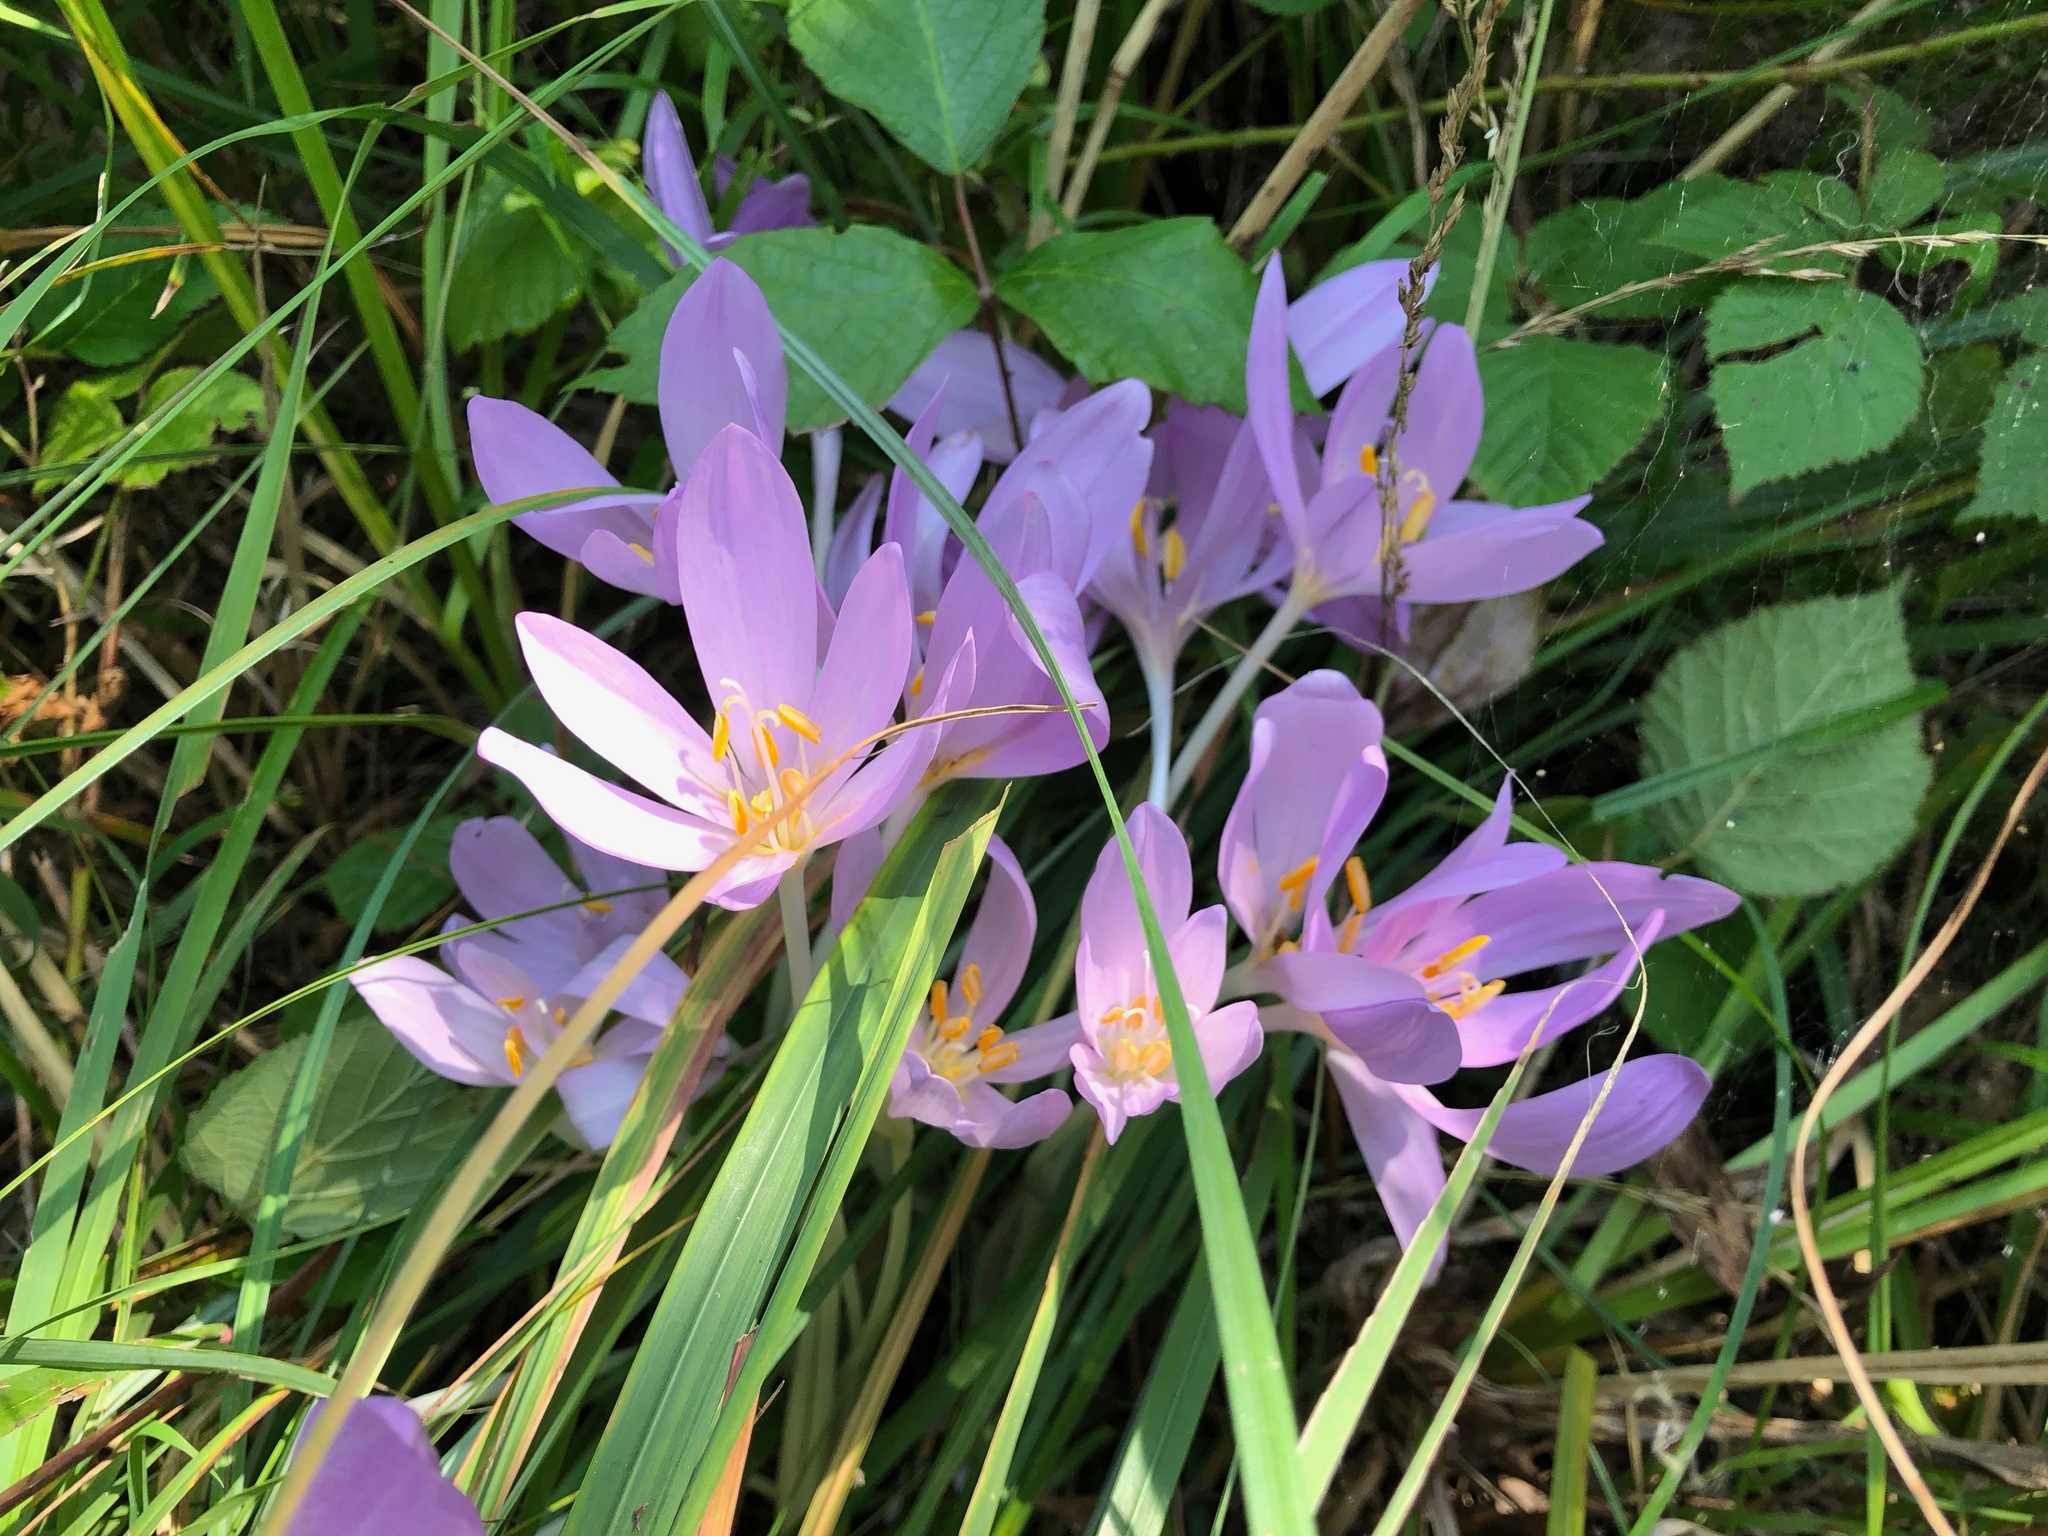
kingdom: Plantae
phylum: Tracheophyta
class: Liliopsida
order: Liliales
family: Colchicaceae
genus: Colchicum
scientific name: Colchicum autumnale
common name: Autumn crocus
